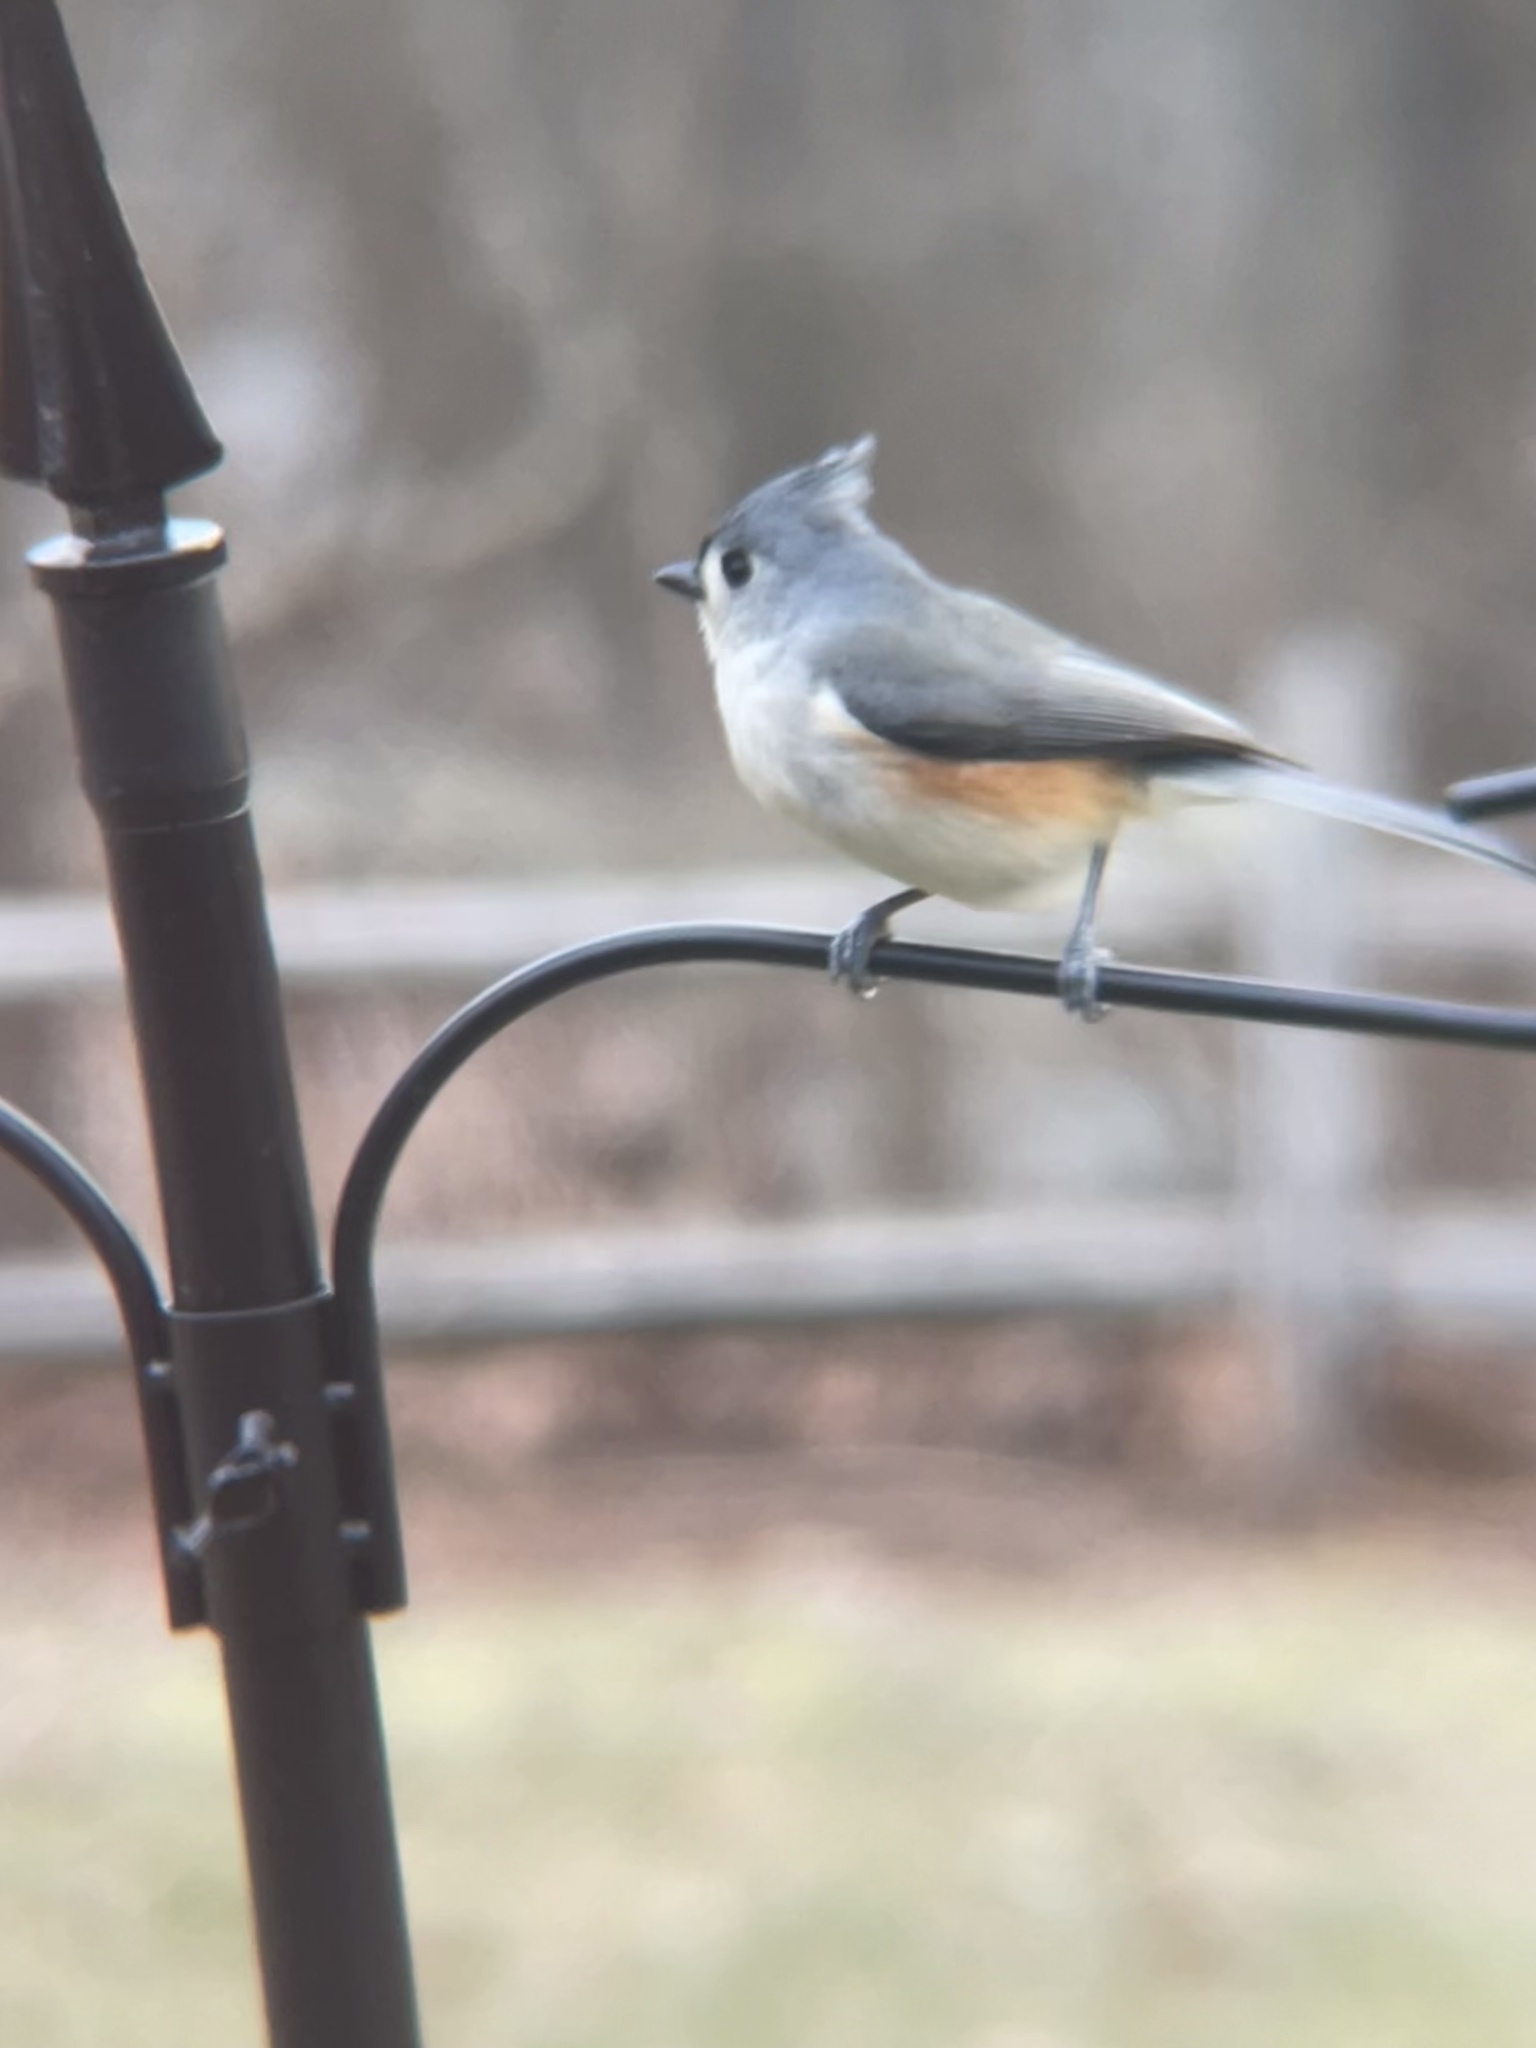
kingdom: Animalia
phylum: Chordata
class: Aves
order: Passeriformes
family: Paridae
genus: Baeolophus
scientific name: Baeolophus bicolor
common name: Tufted titmouse
